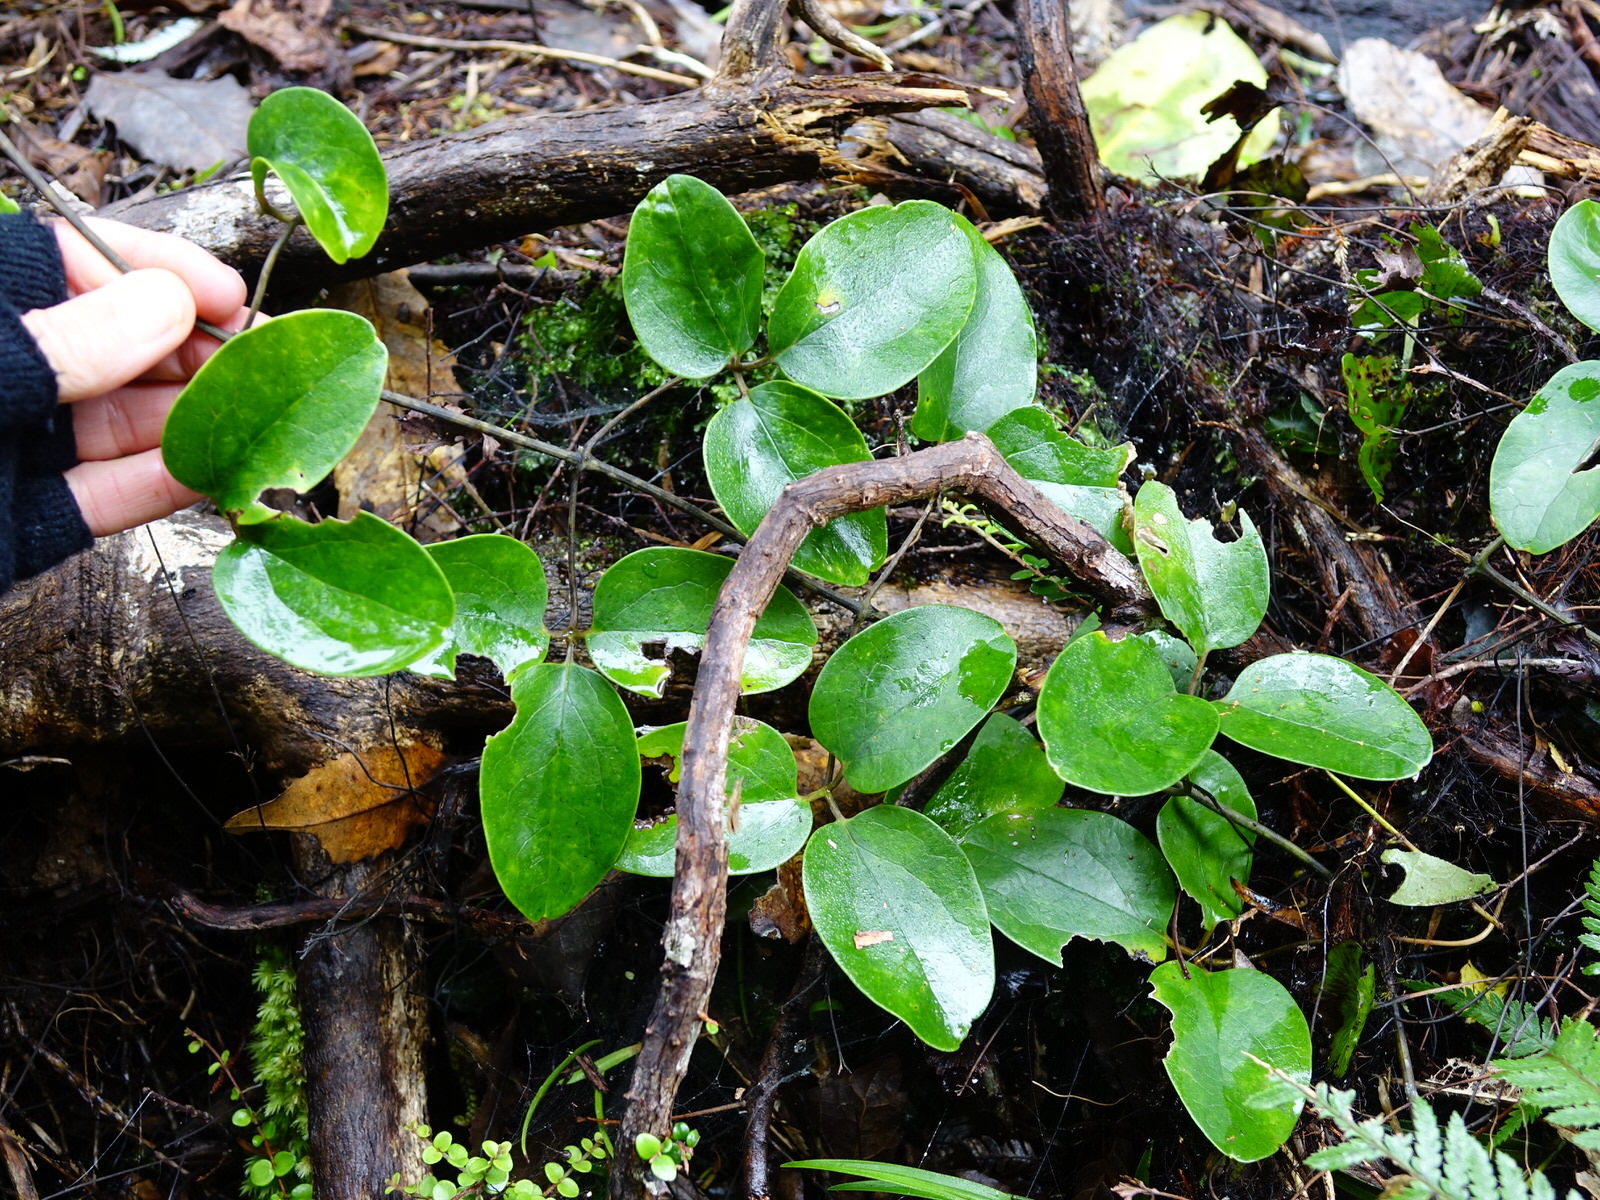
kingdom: Plantae
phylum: Tracheophyta
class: Magnoliopsida
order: Ranunculales
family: Ranunculaceae
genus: Clematis
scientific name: Clematis paniculata
